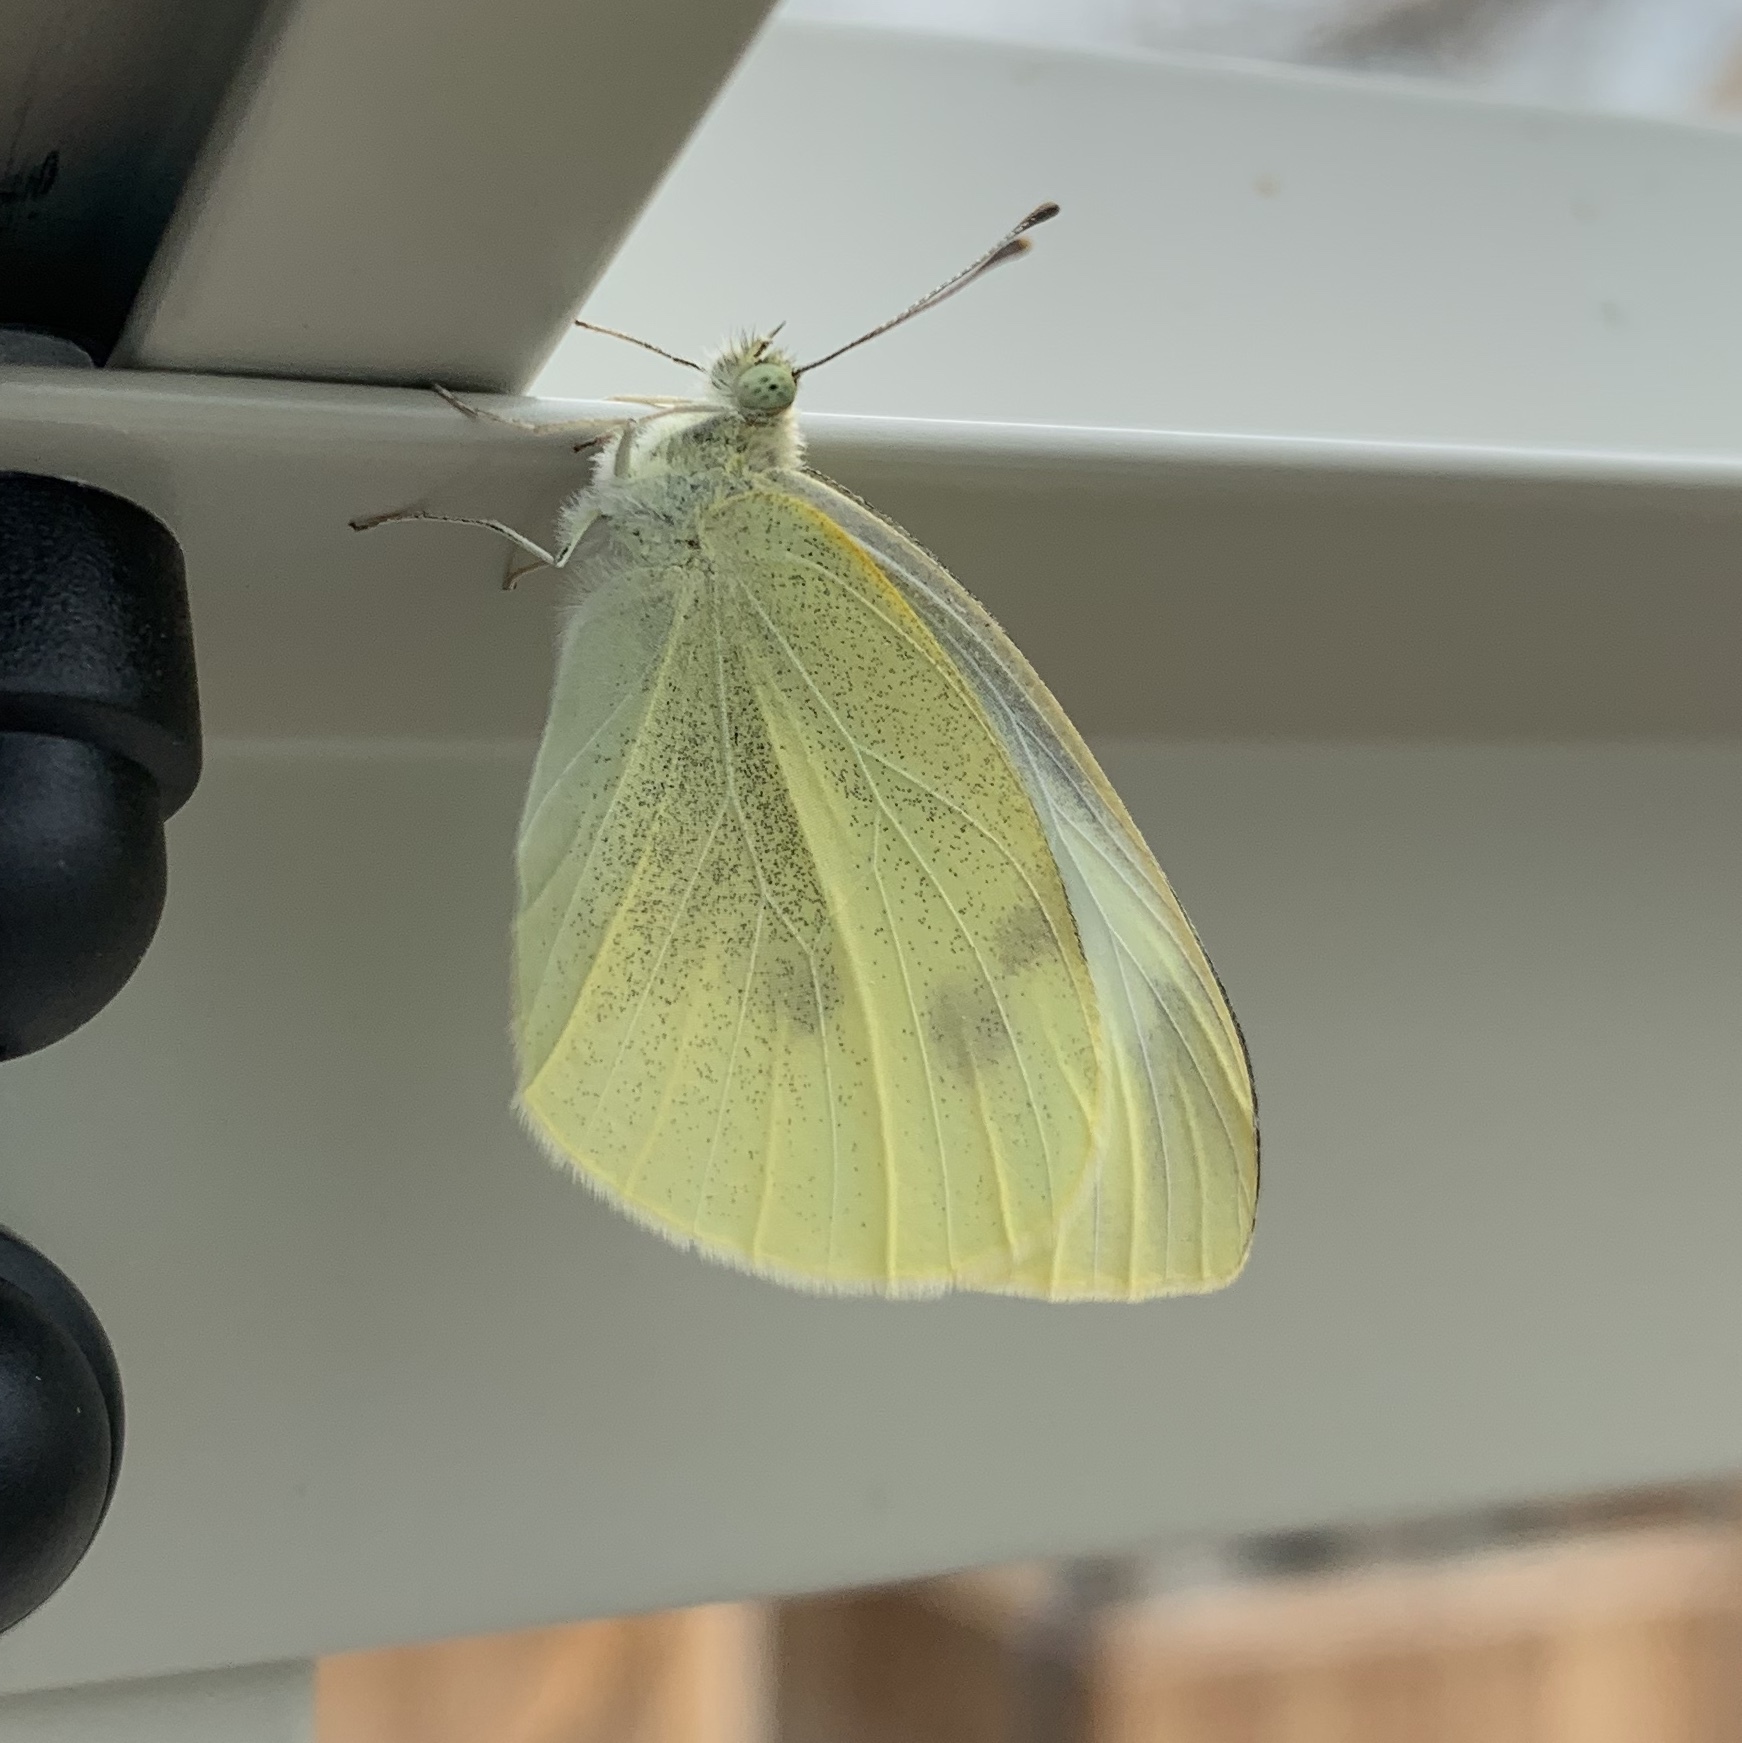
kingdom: Animalia
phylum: Arthropoda
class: Insecta
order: Lepidoptera
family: Pieridae
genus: Pieris
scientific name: Pieris rapae
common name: Small white
